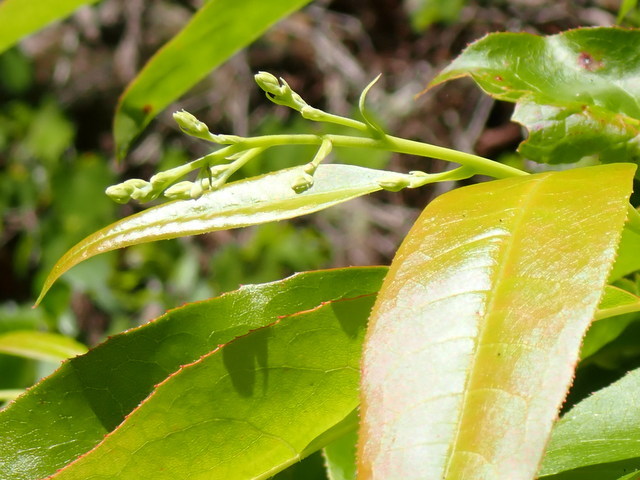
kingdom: Plantae
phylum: Tracheophyta
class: Magnoliopsida
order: Ericales
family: Ericaceae
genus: Oxydendrum
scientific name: Oxydendrum arboreum
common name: Sourwood
